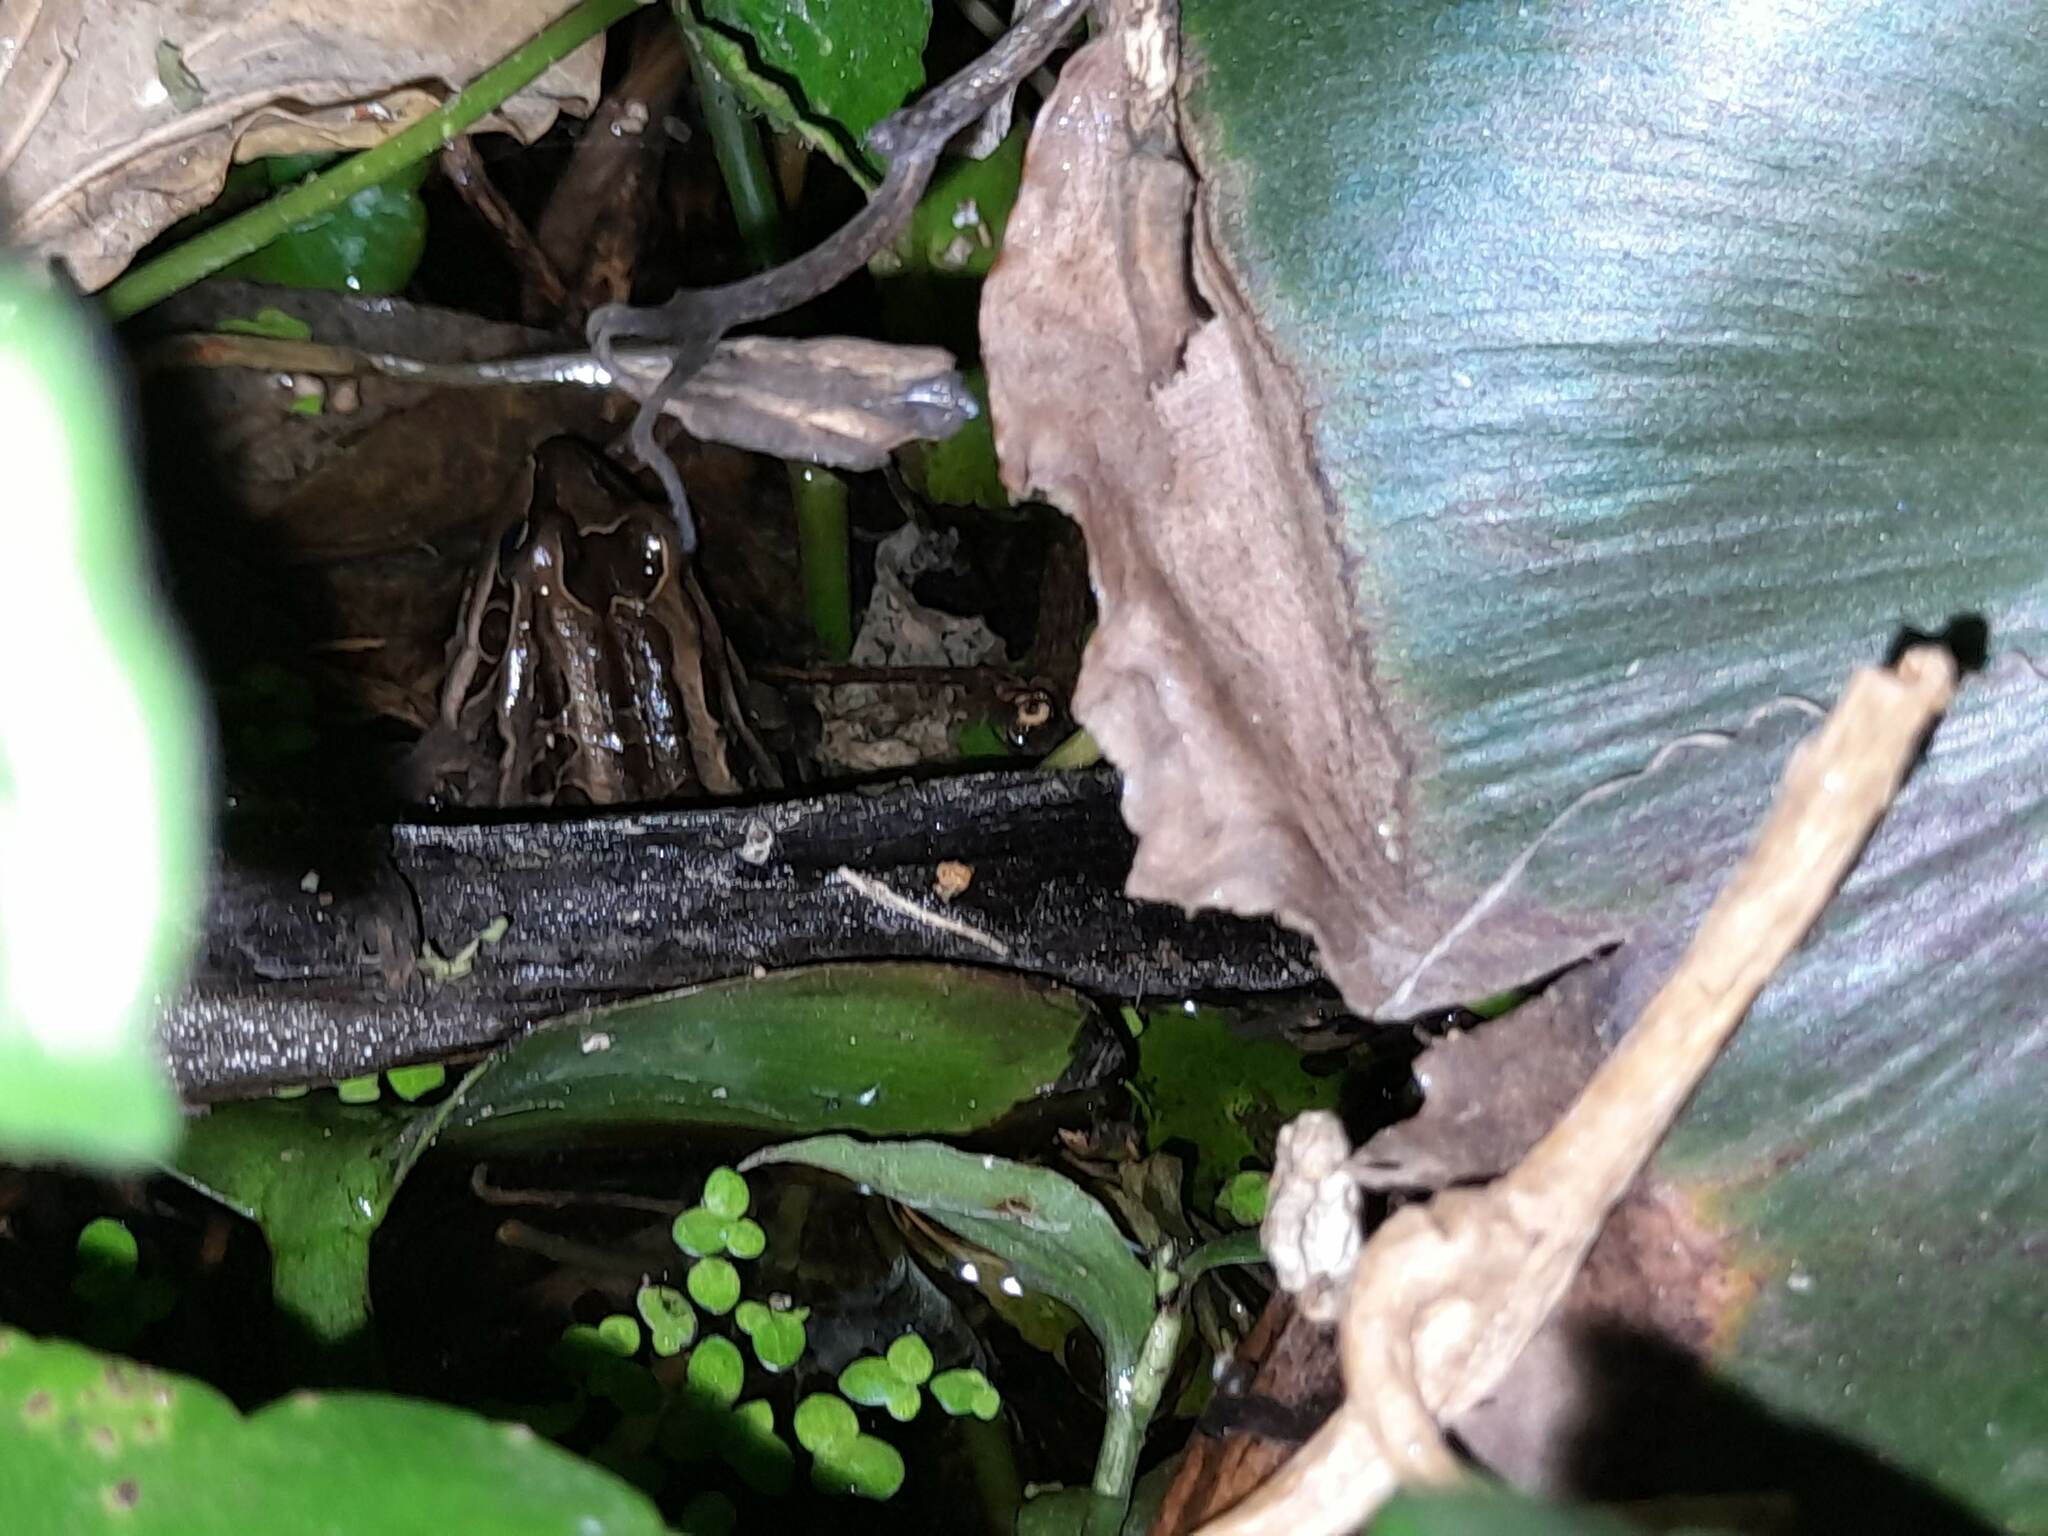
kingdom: Animalia
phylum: Chordata
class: Amphibia
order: Anura
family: Leptodactylidae
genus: Leptodactylus
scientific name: Leptodactylus luctator
